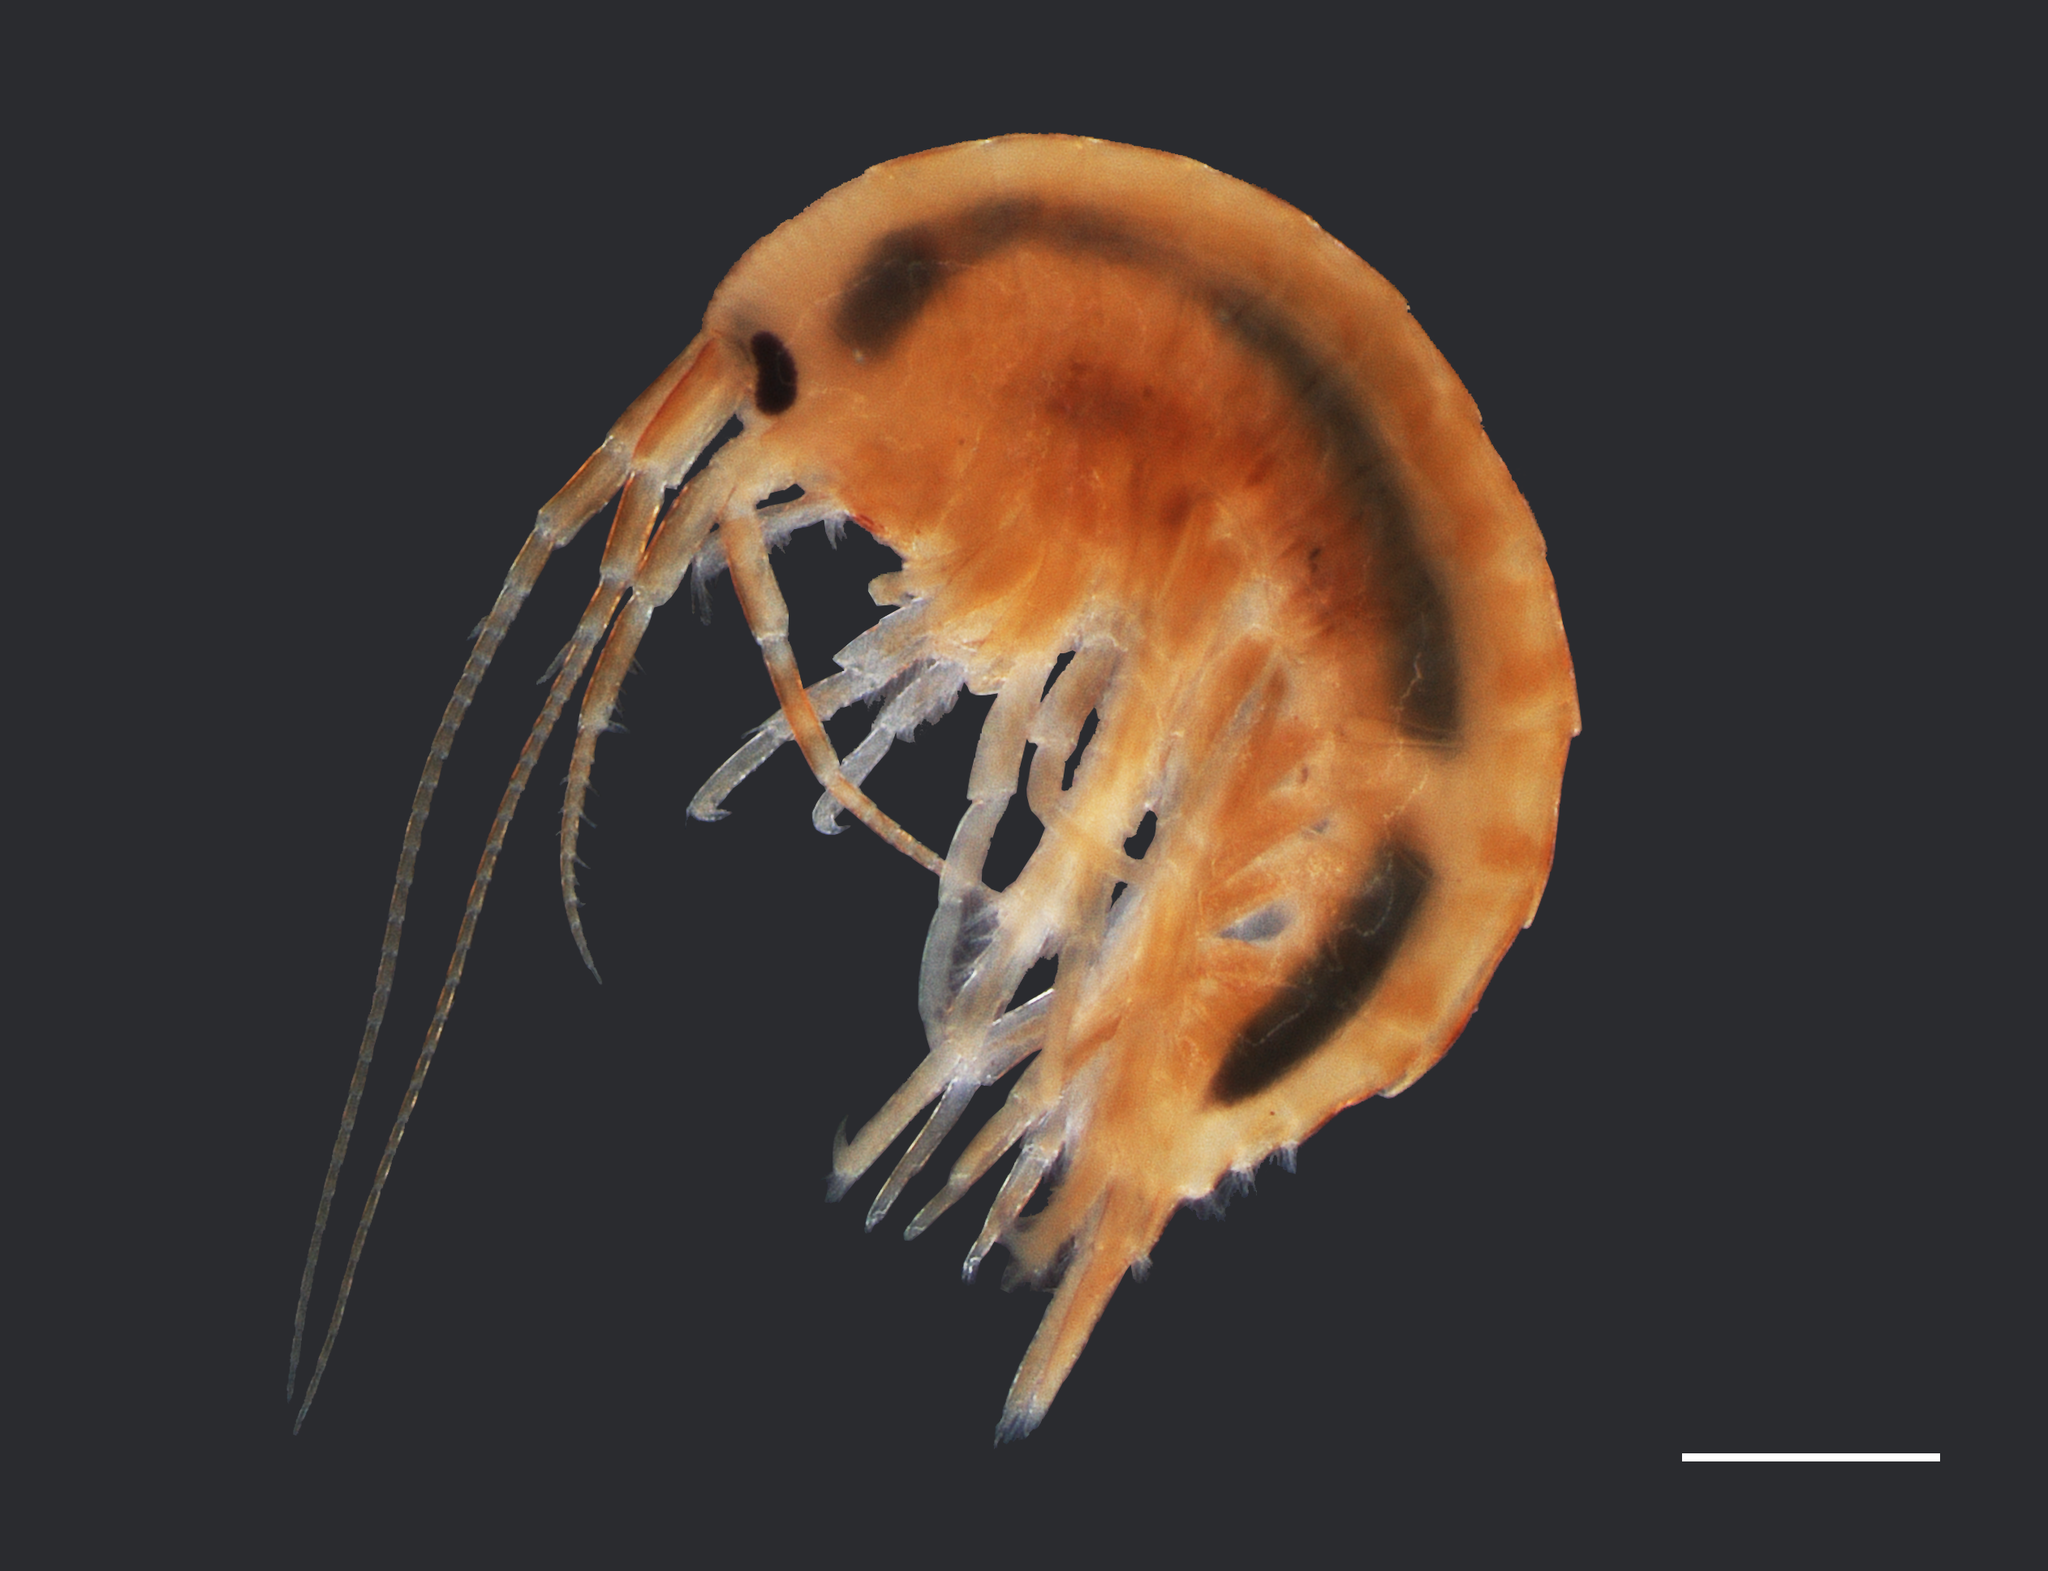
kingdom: Animalia
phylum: Arthropoda
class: Malacostraca
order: Amphipoda
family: Gammaridae
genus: Gammarus
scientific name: Gammarus seideli
